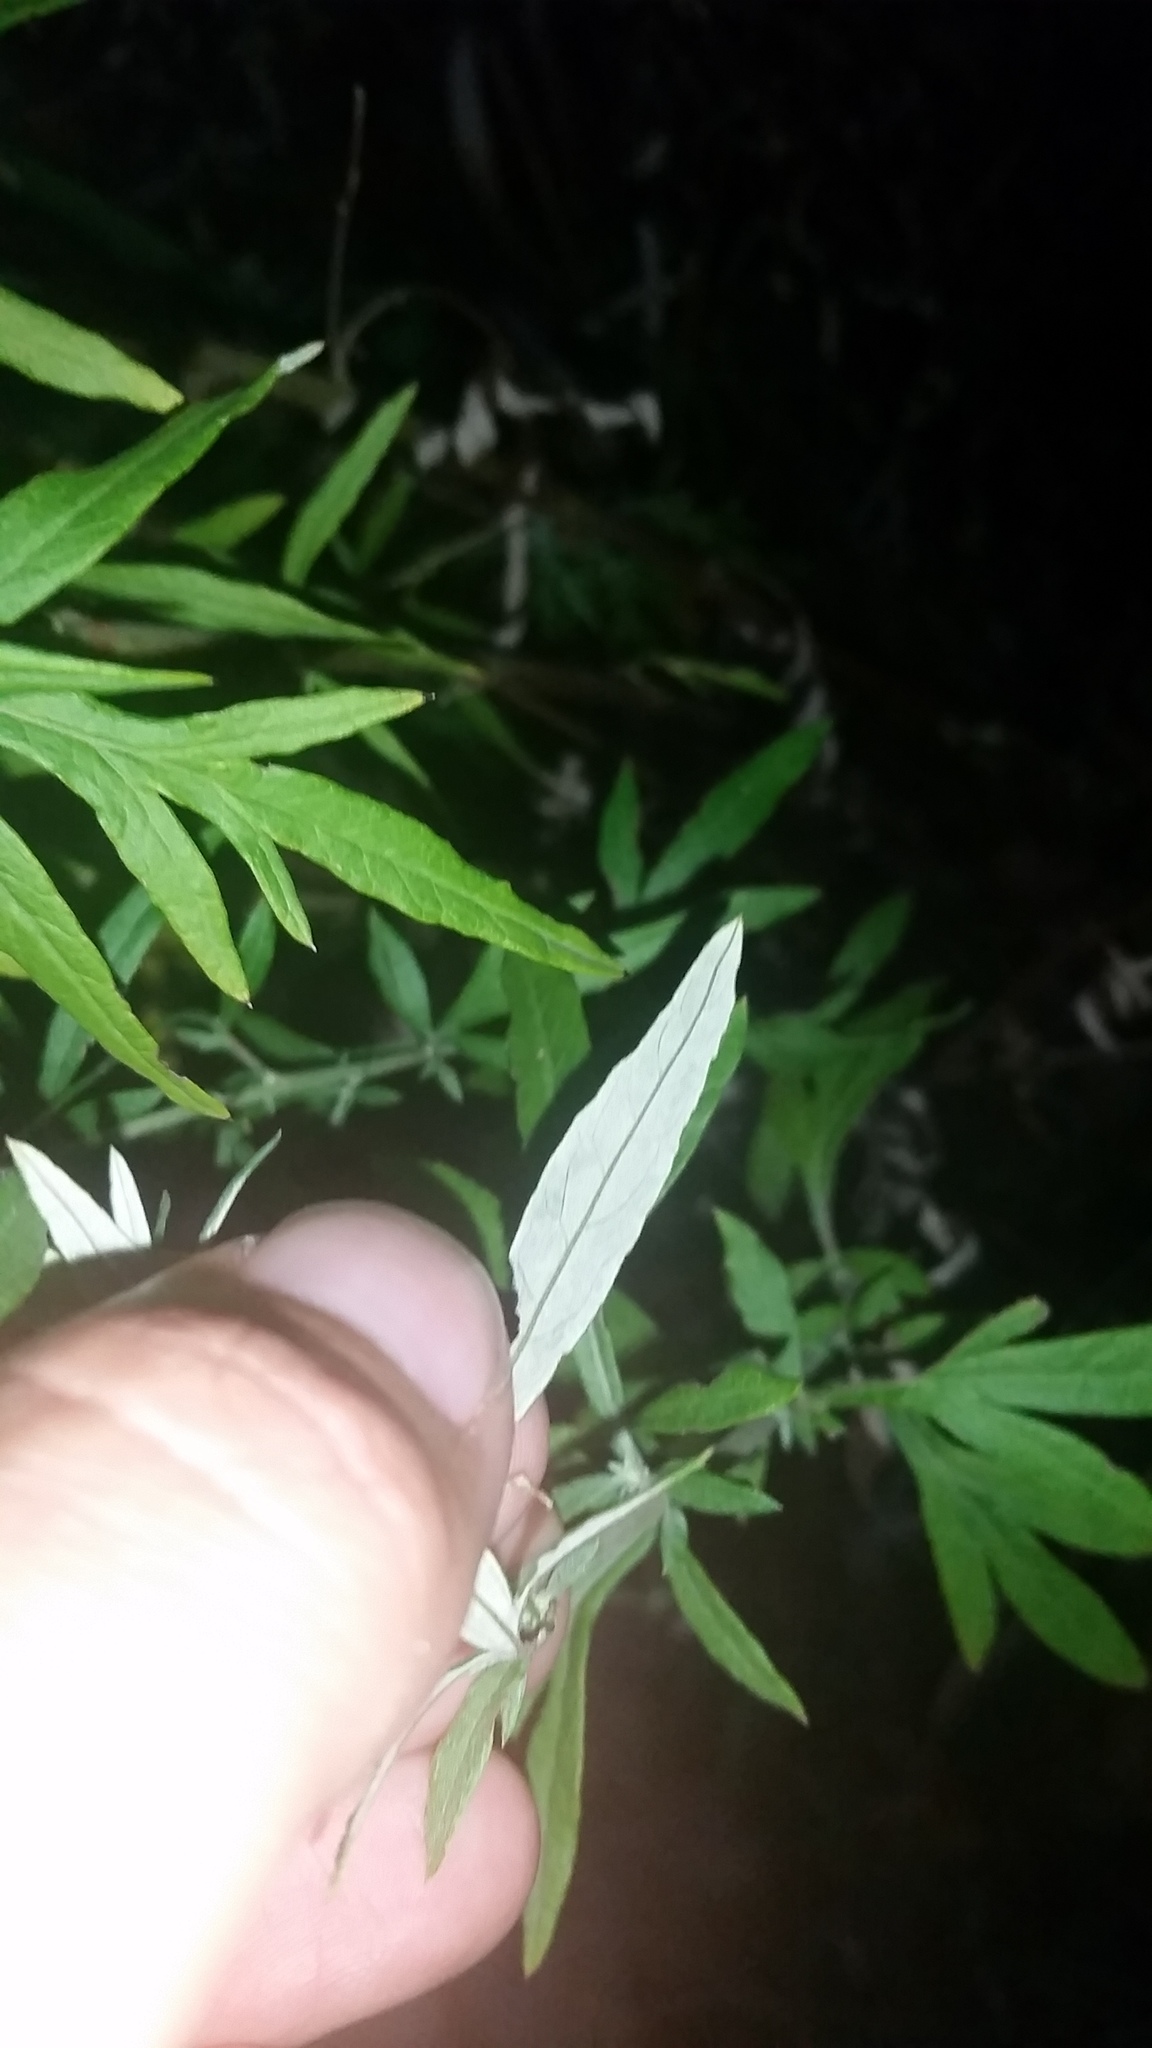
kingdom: Plantae
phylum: Tracheophyta
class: Magnoliopsida
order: Asterales
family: Asteraceae
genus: Artemisia
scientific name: Artemisia vulgaris
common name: Mugwort
